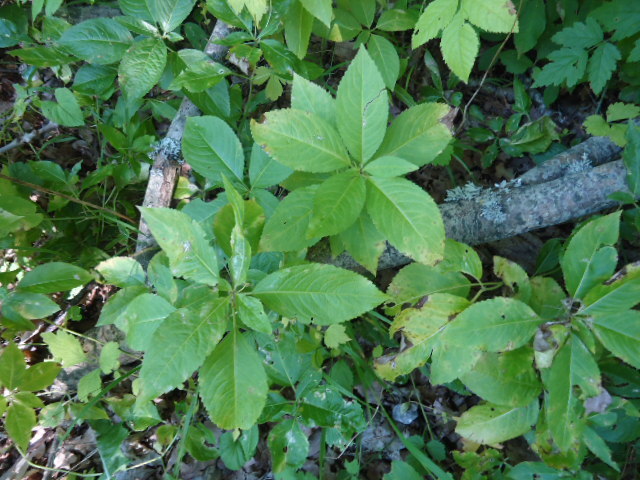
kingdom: Plantae
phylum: Tracheophyta
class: Magnoliopsida
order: Malpighiales
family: Euphorbiaceae
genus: Mercurialis
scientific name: Mercurialis perennis
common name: Dog mercury
